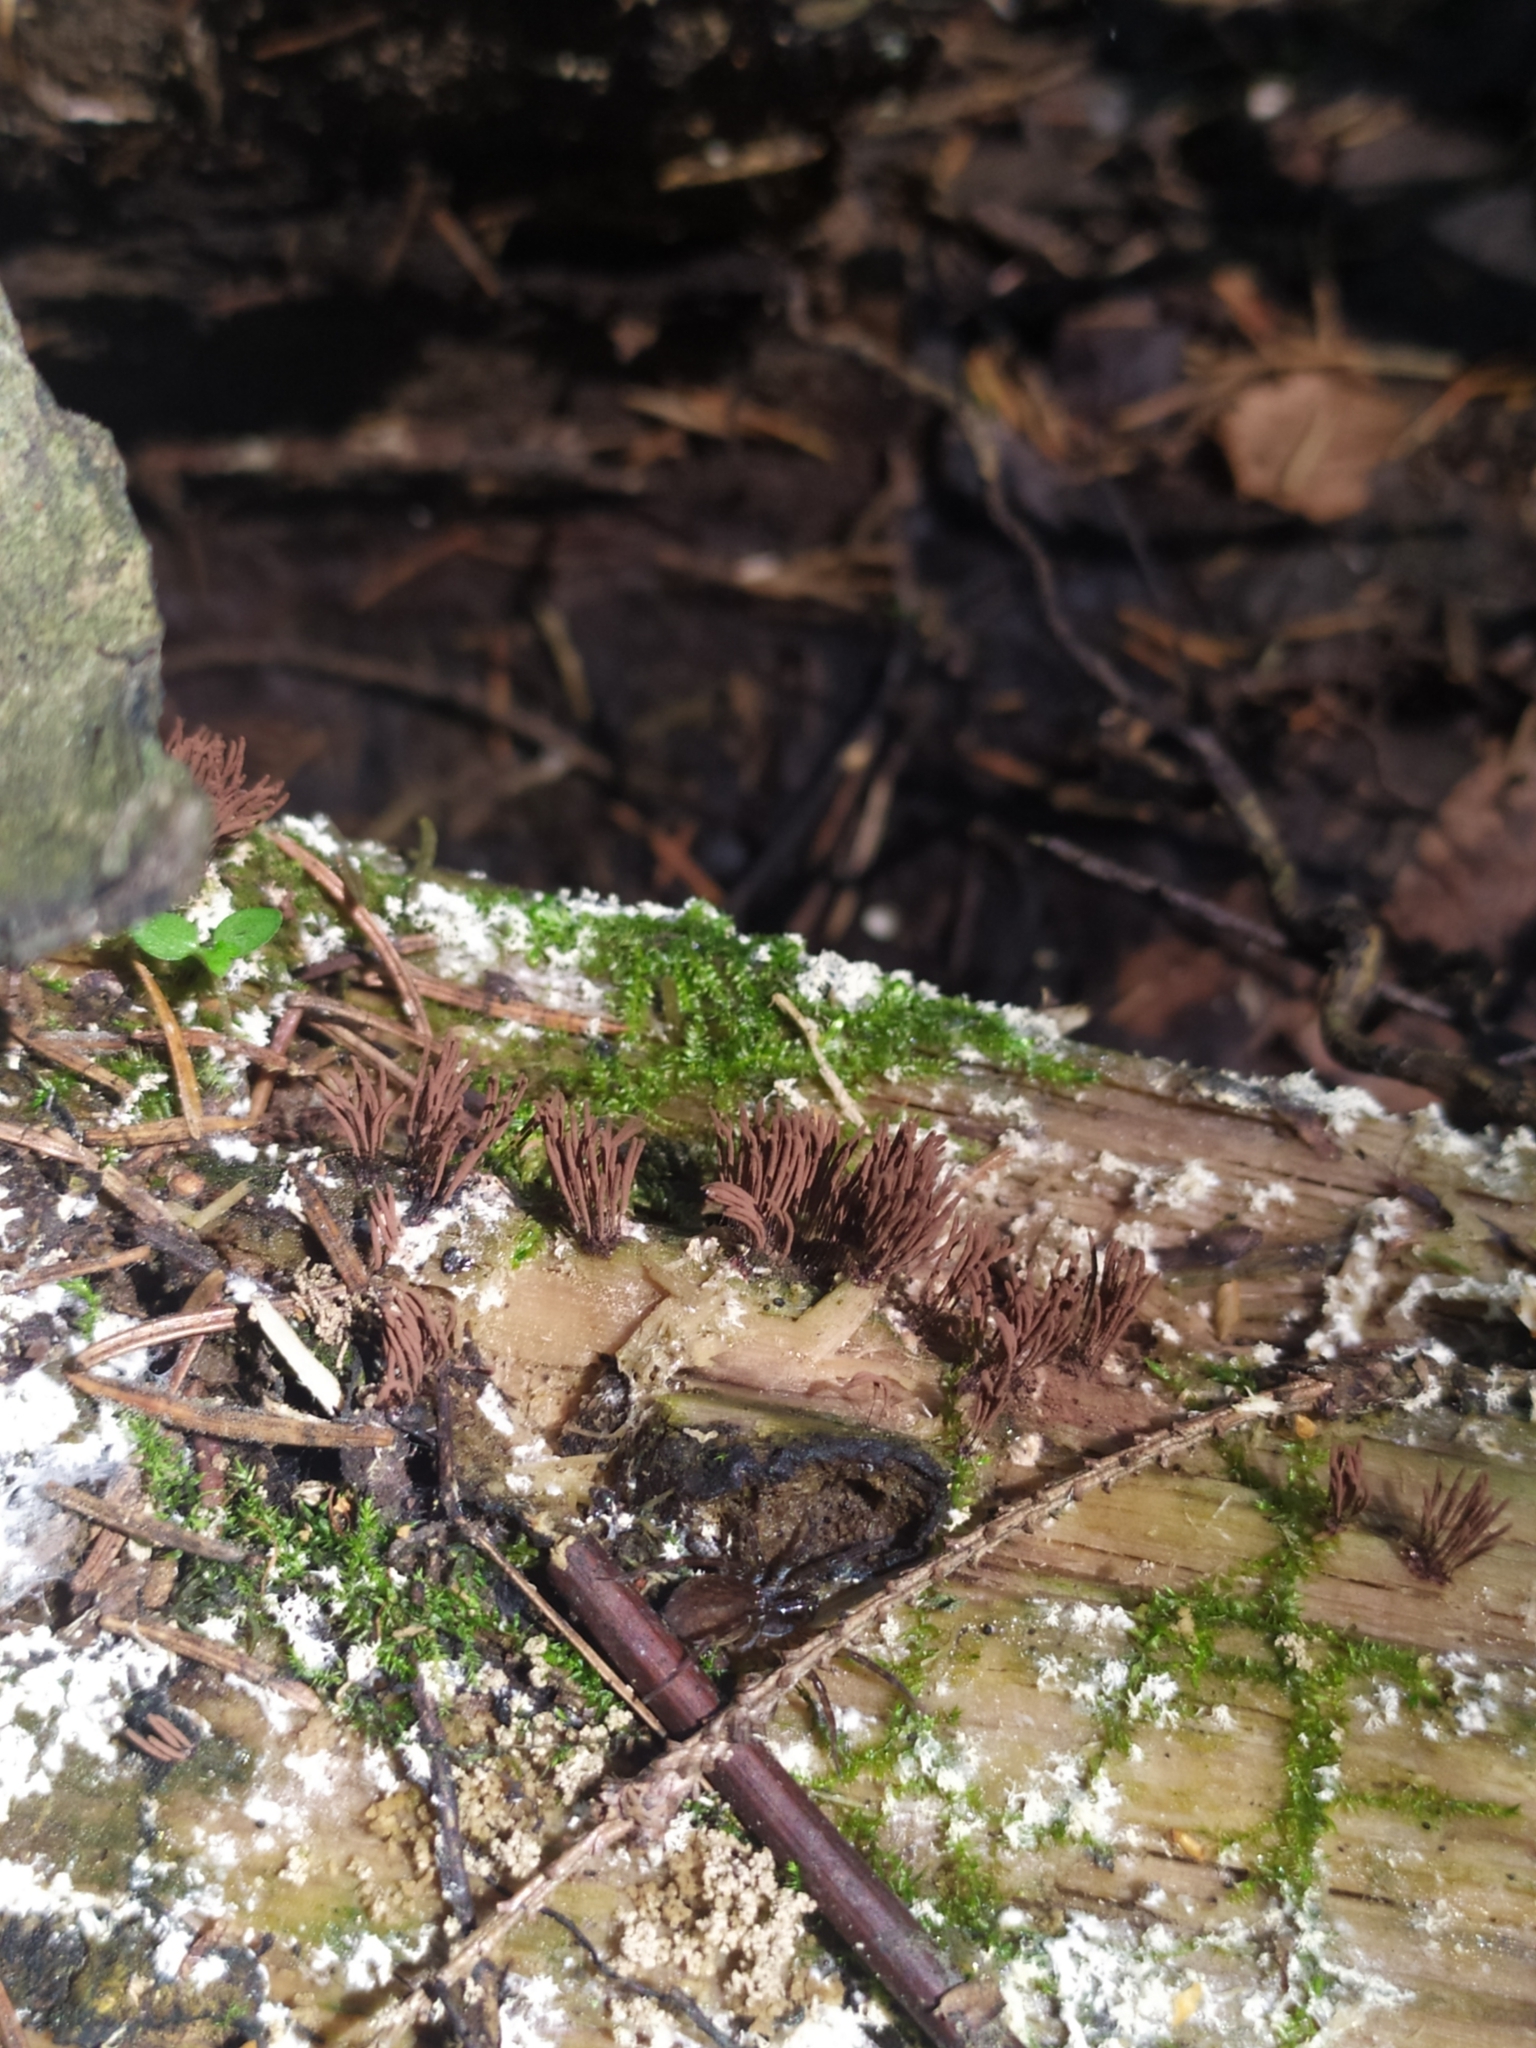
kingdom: Protozoa
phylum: Mycetozoa
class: Myxomycetes
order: Stemonitidales
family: Stemonitidaceae
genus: Stemonitis
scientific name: Stemonitis axifera
